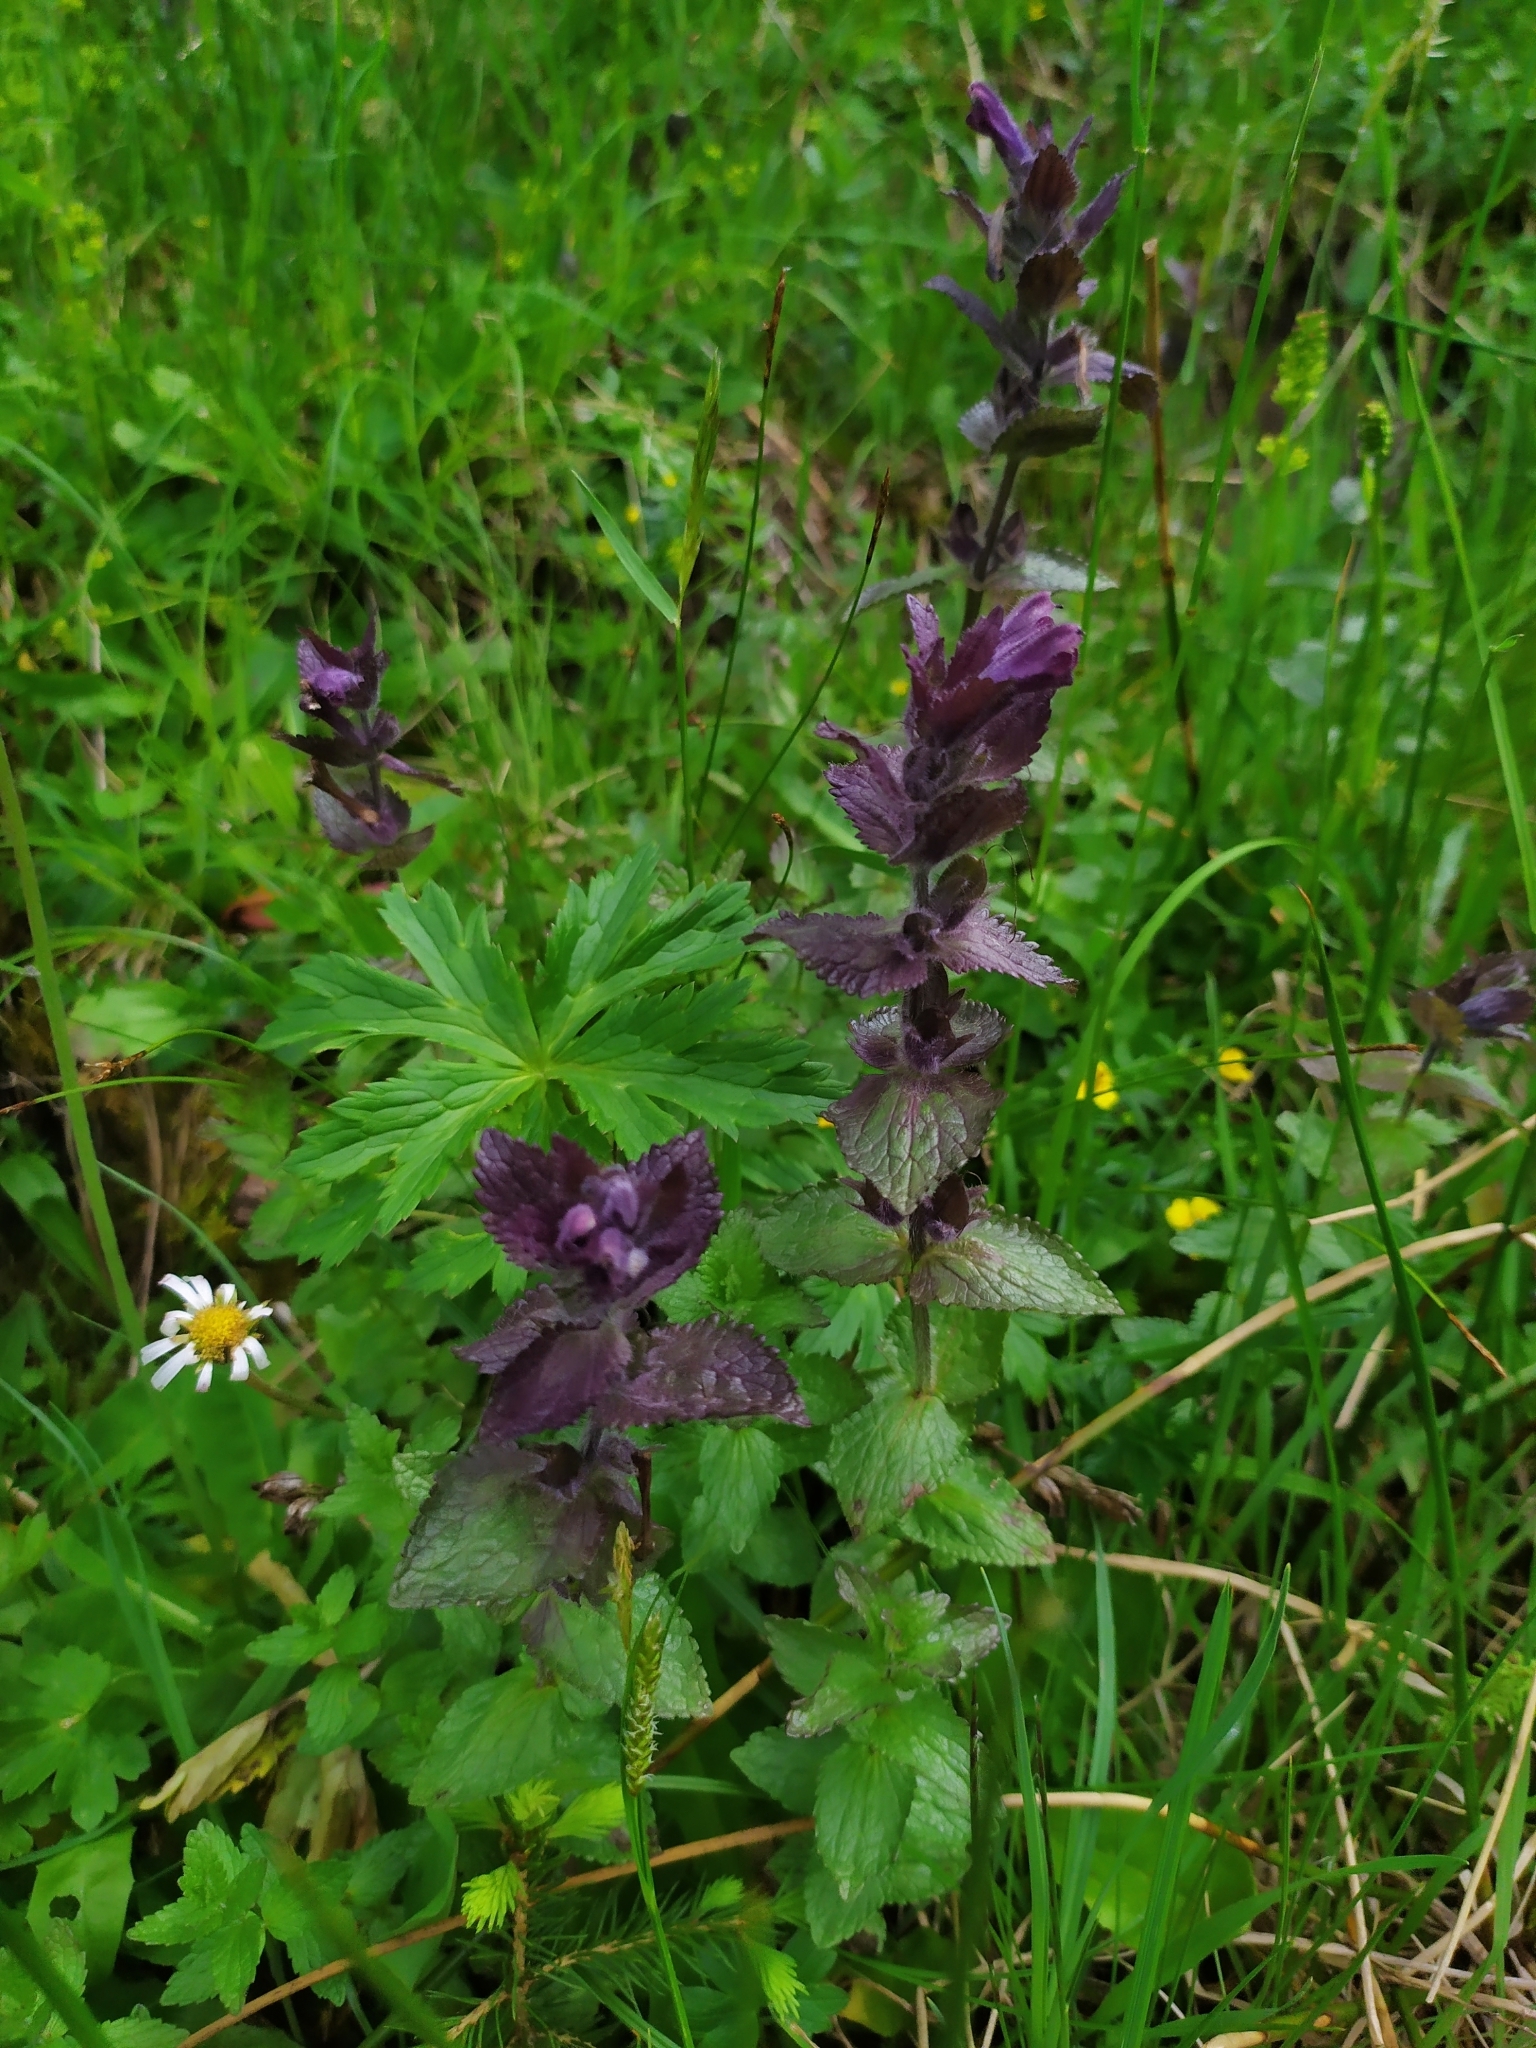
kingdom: Plantae
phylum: Tracheophyta
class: Magnoliopsida
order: Lamiales
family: Orobanchaceae
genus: Bartsia
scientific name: Bartsia alpina
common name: Alpine bartsia
